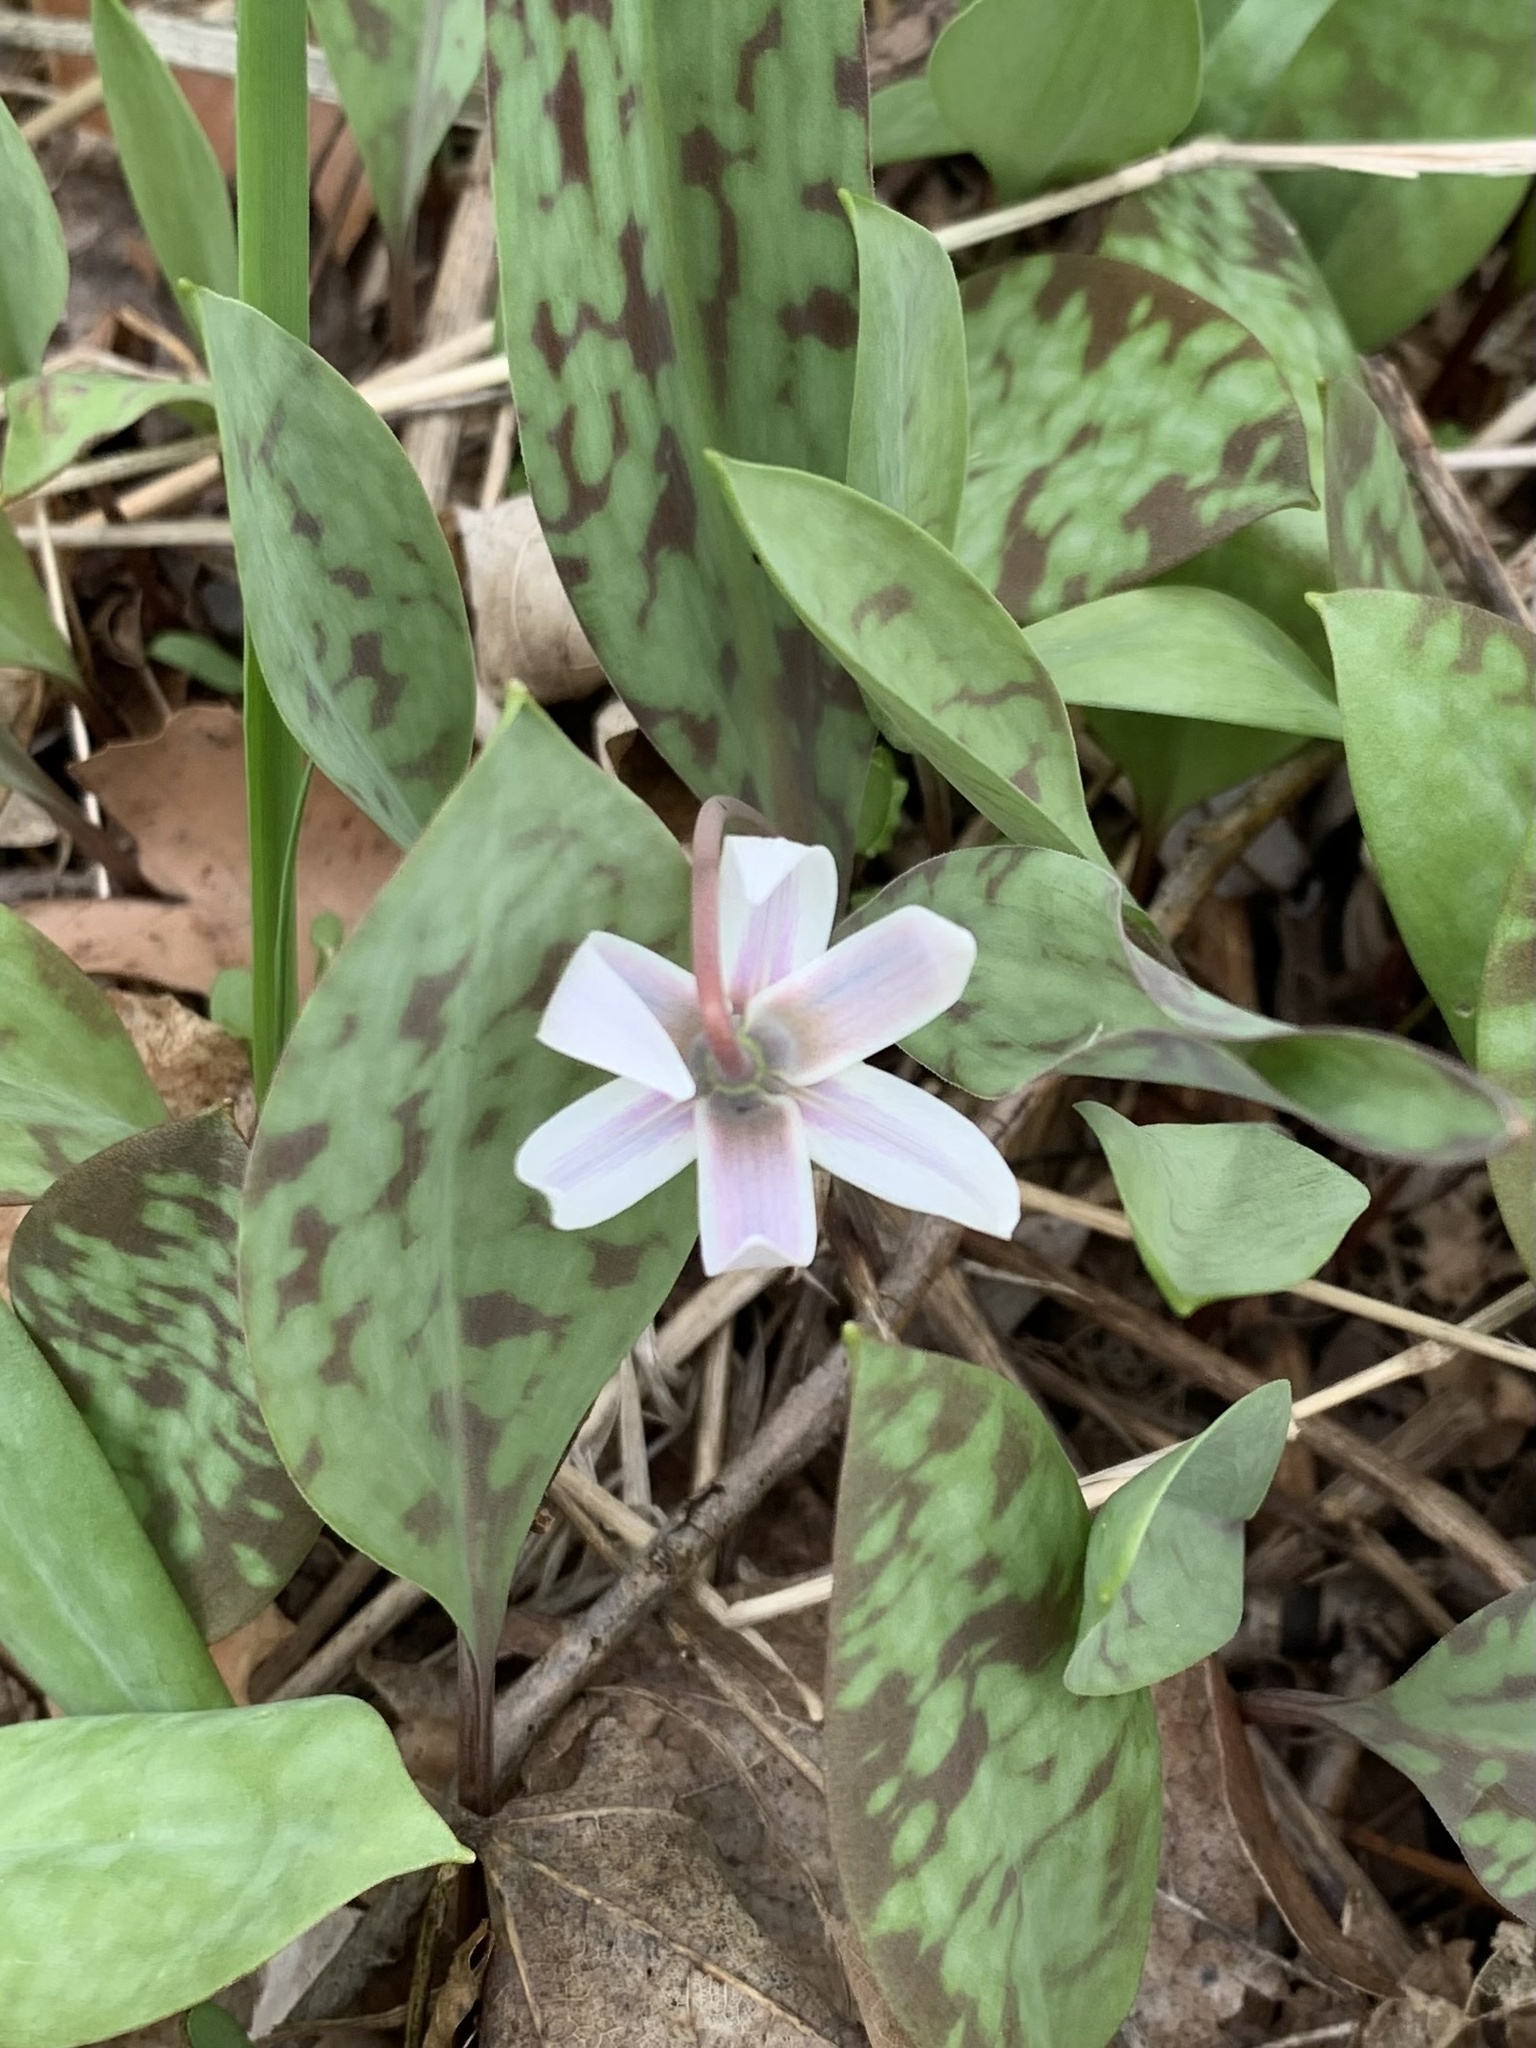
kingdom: Plantae
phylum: Tracheophyta
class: Liliopsida
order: Liliales
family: Liliaceae
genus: Erythronium
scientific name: Erythronium albidum
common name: White trout-lily
